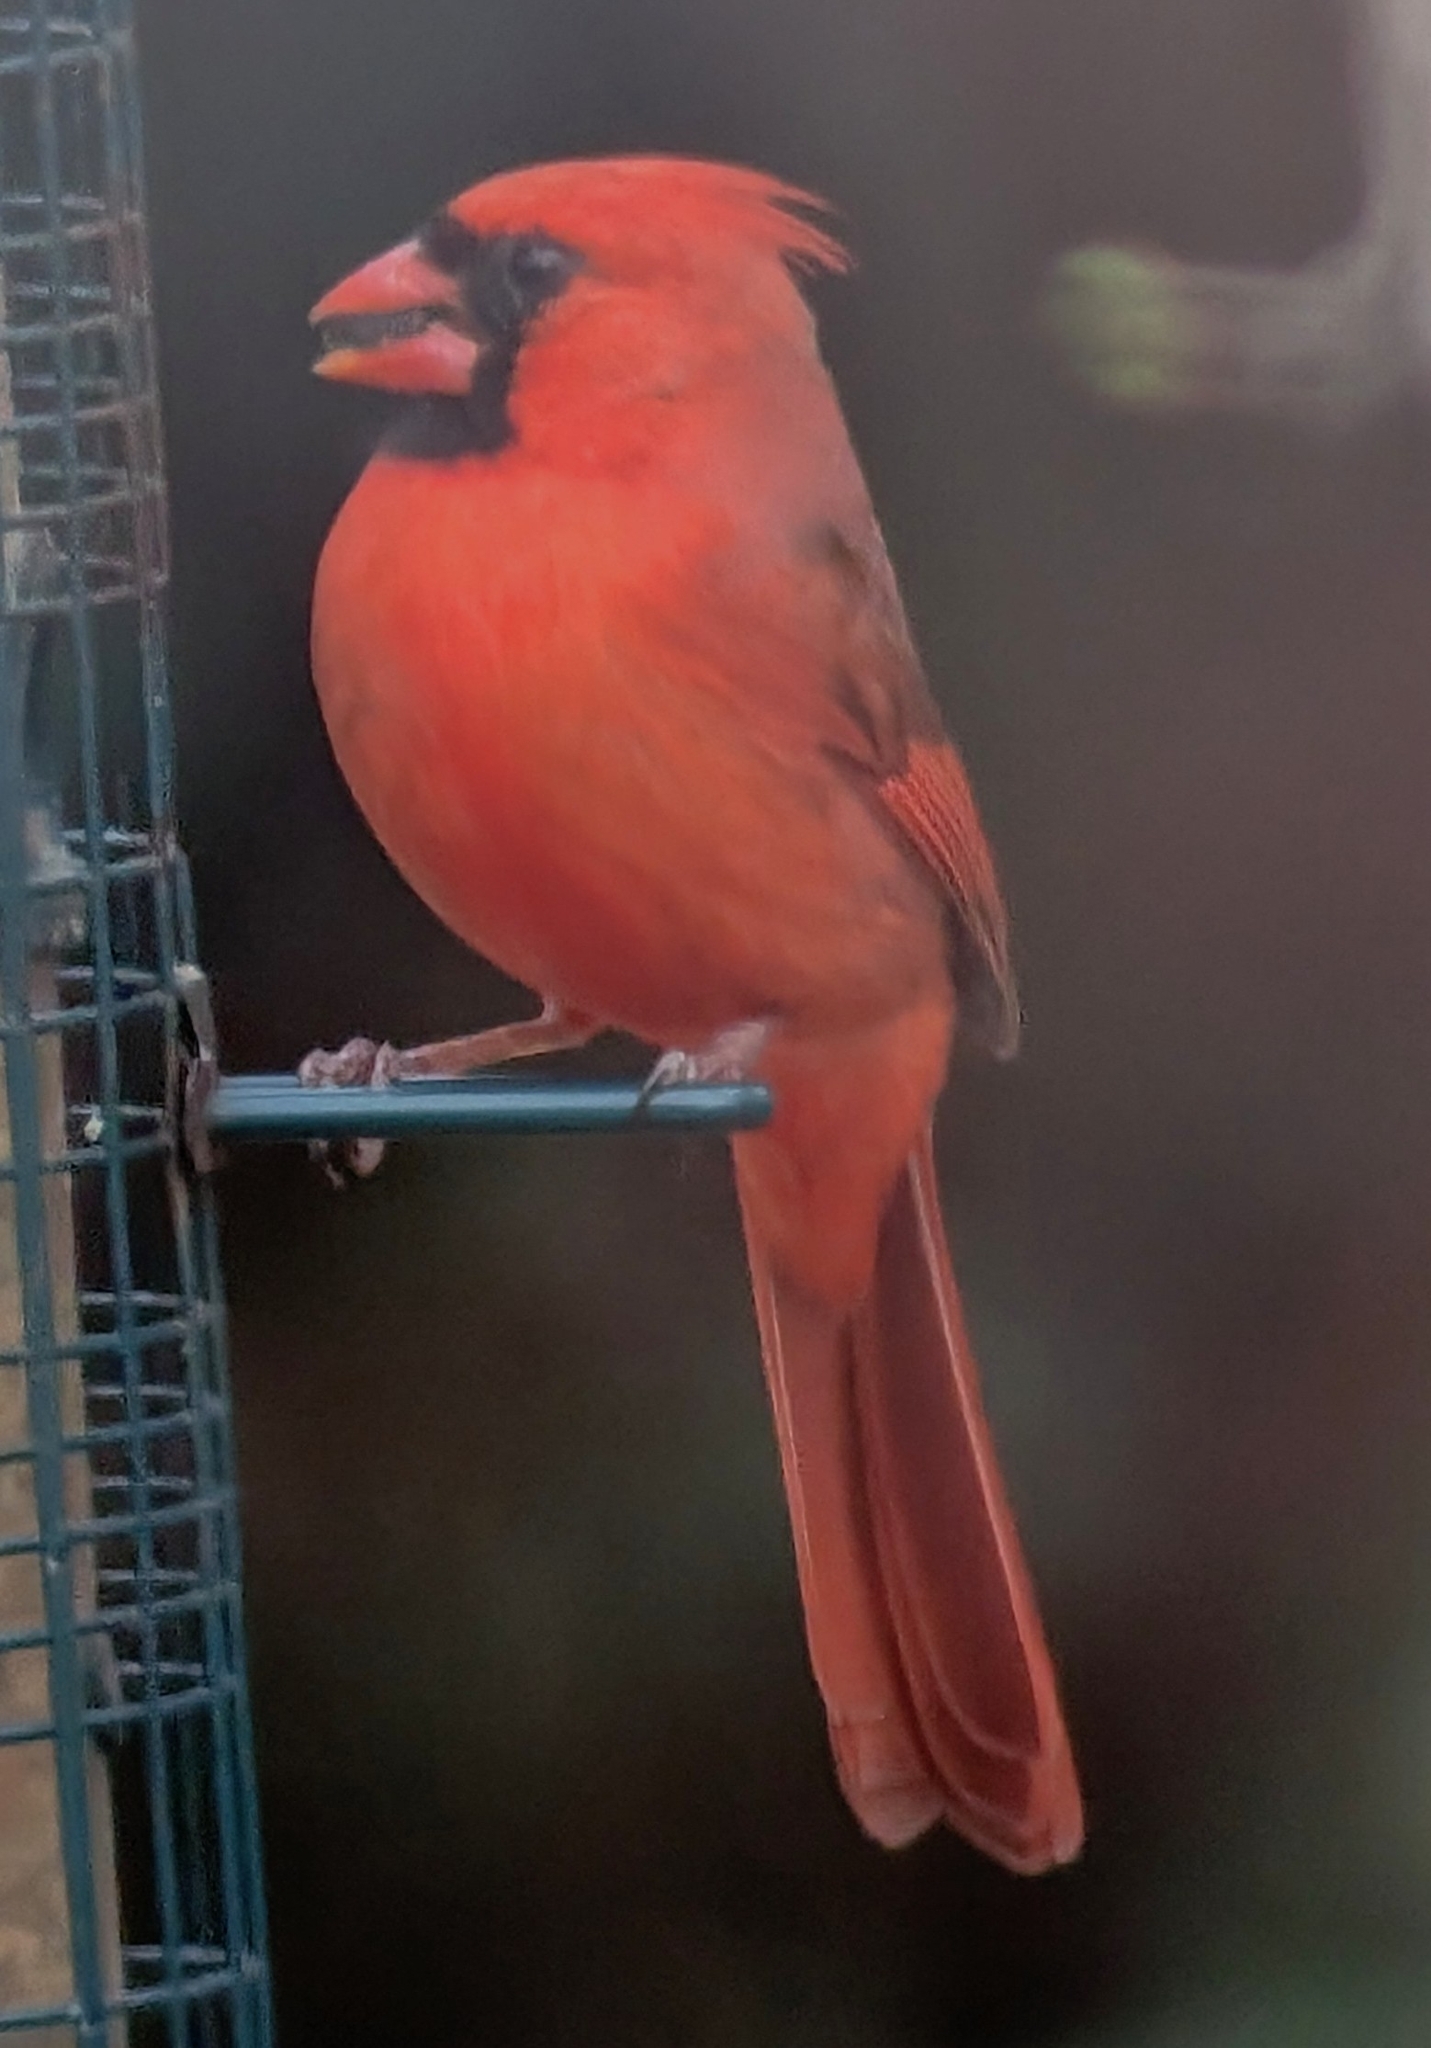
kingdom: Animalia
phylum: Chordata
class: Aves
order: Passeriformes
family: Cardinalidae
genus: Cardinalis
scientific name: Cardinalis cardinalis
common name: Northern cardinal
